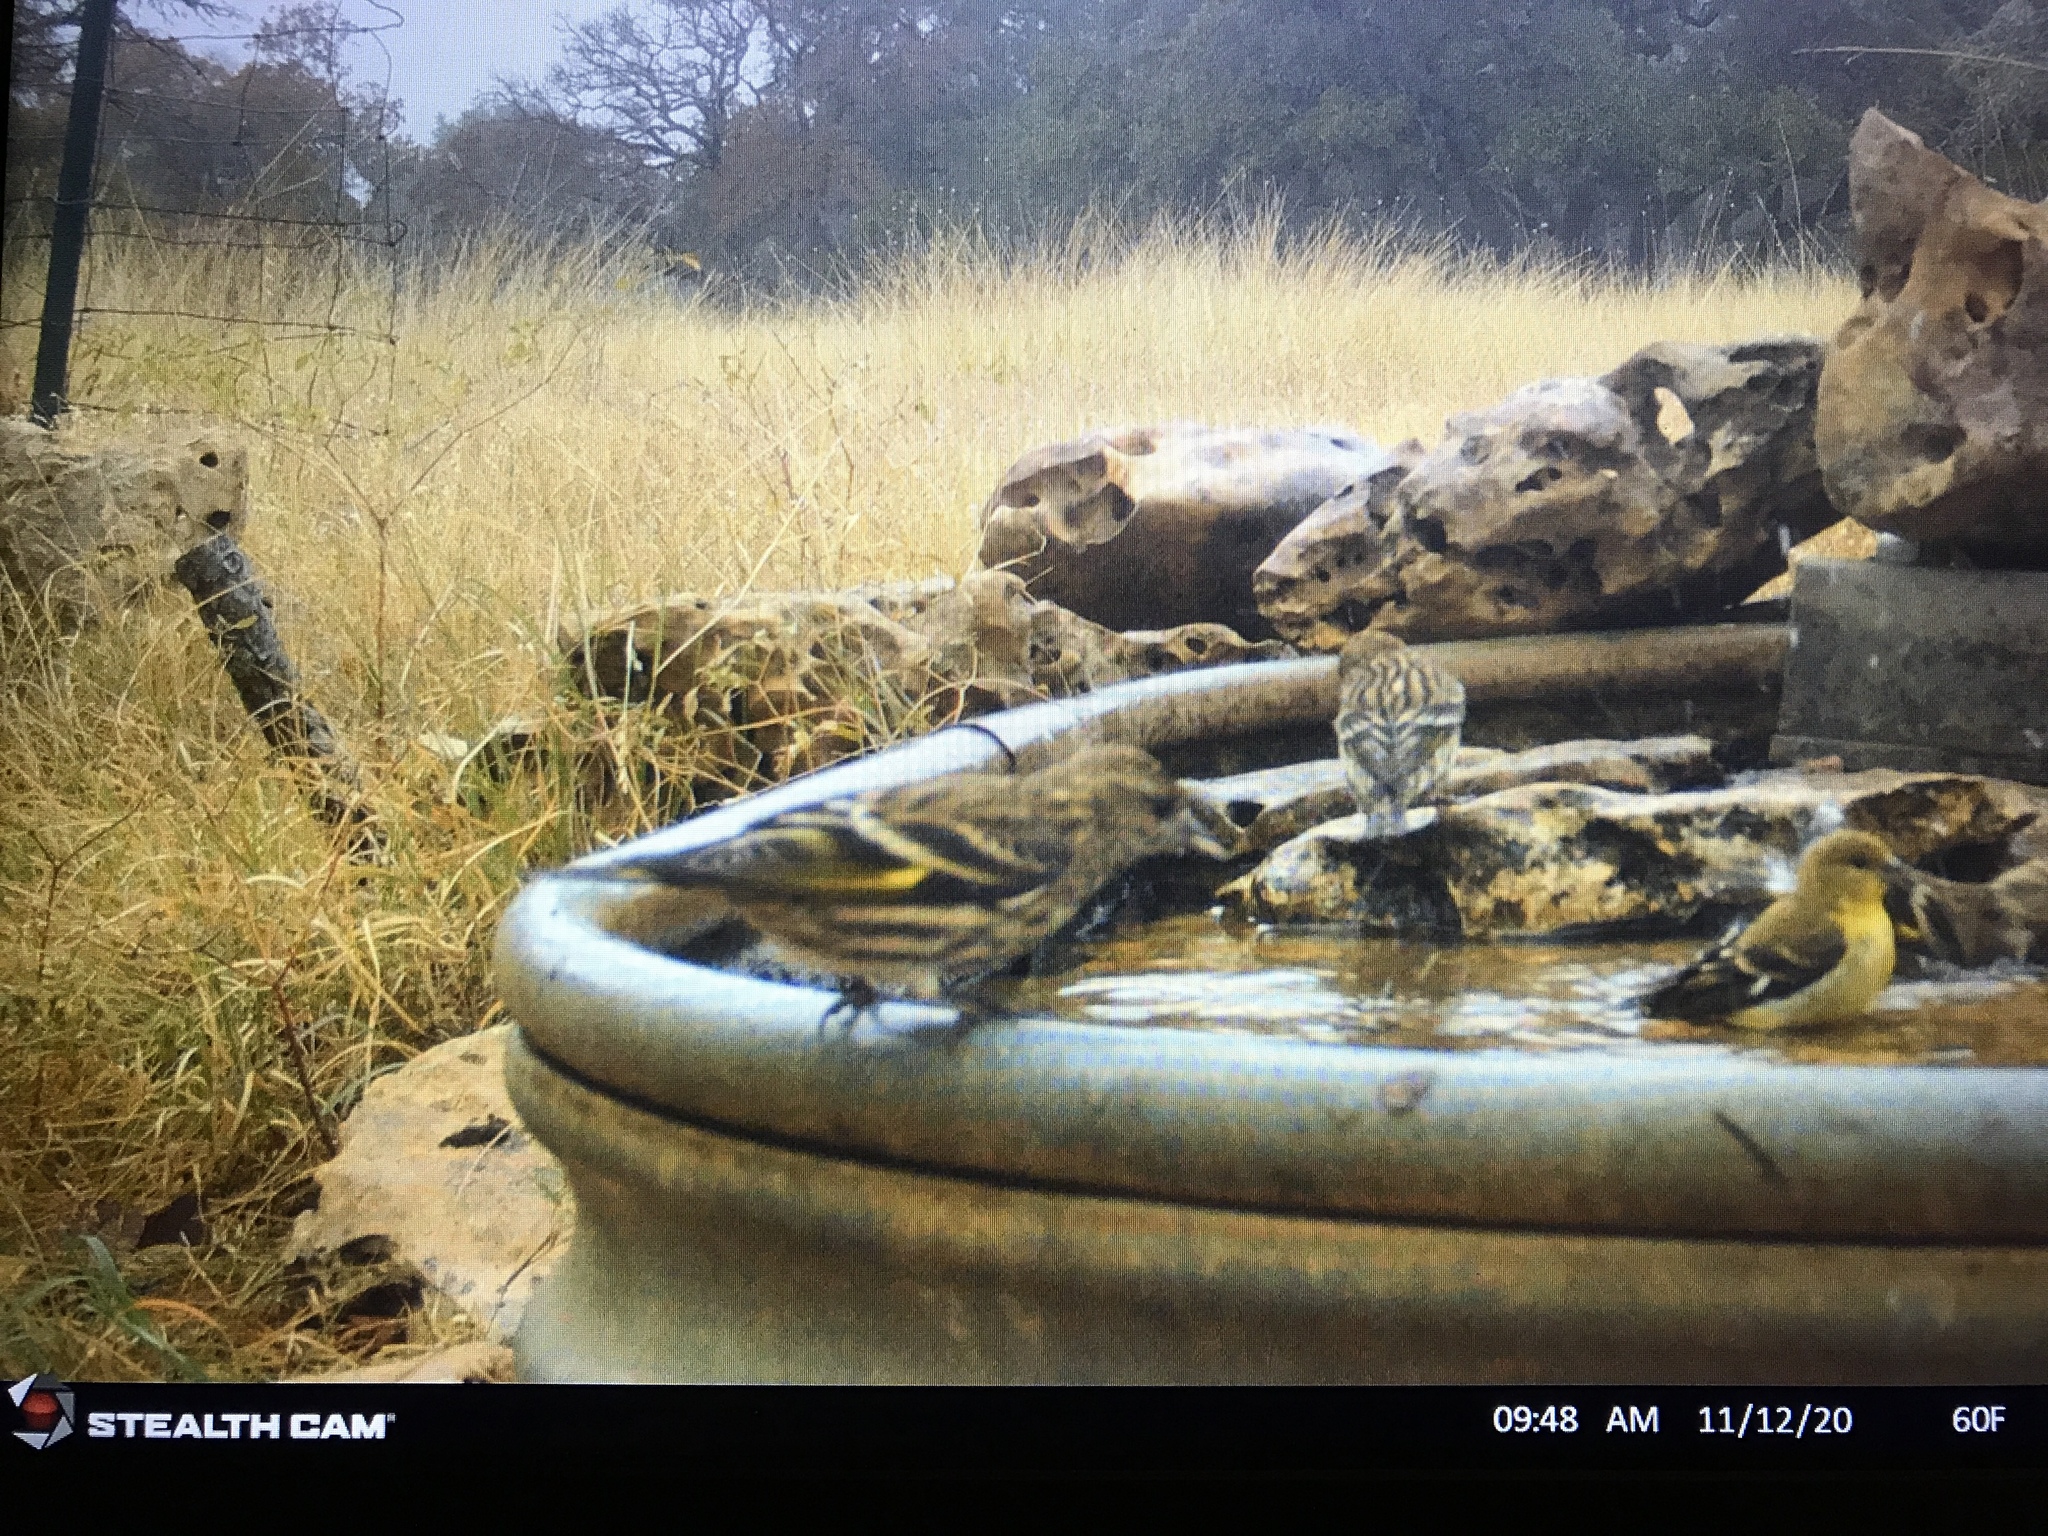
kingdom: Animalia
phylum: Chordata
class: Aves
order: Passeriformes
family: Fringillidae
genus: Spinus
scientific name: Spinus pinus
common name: Pine siskin
